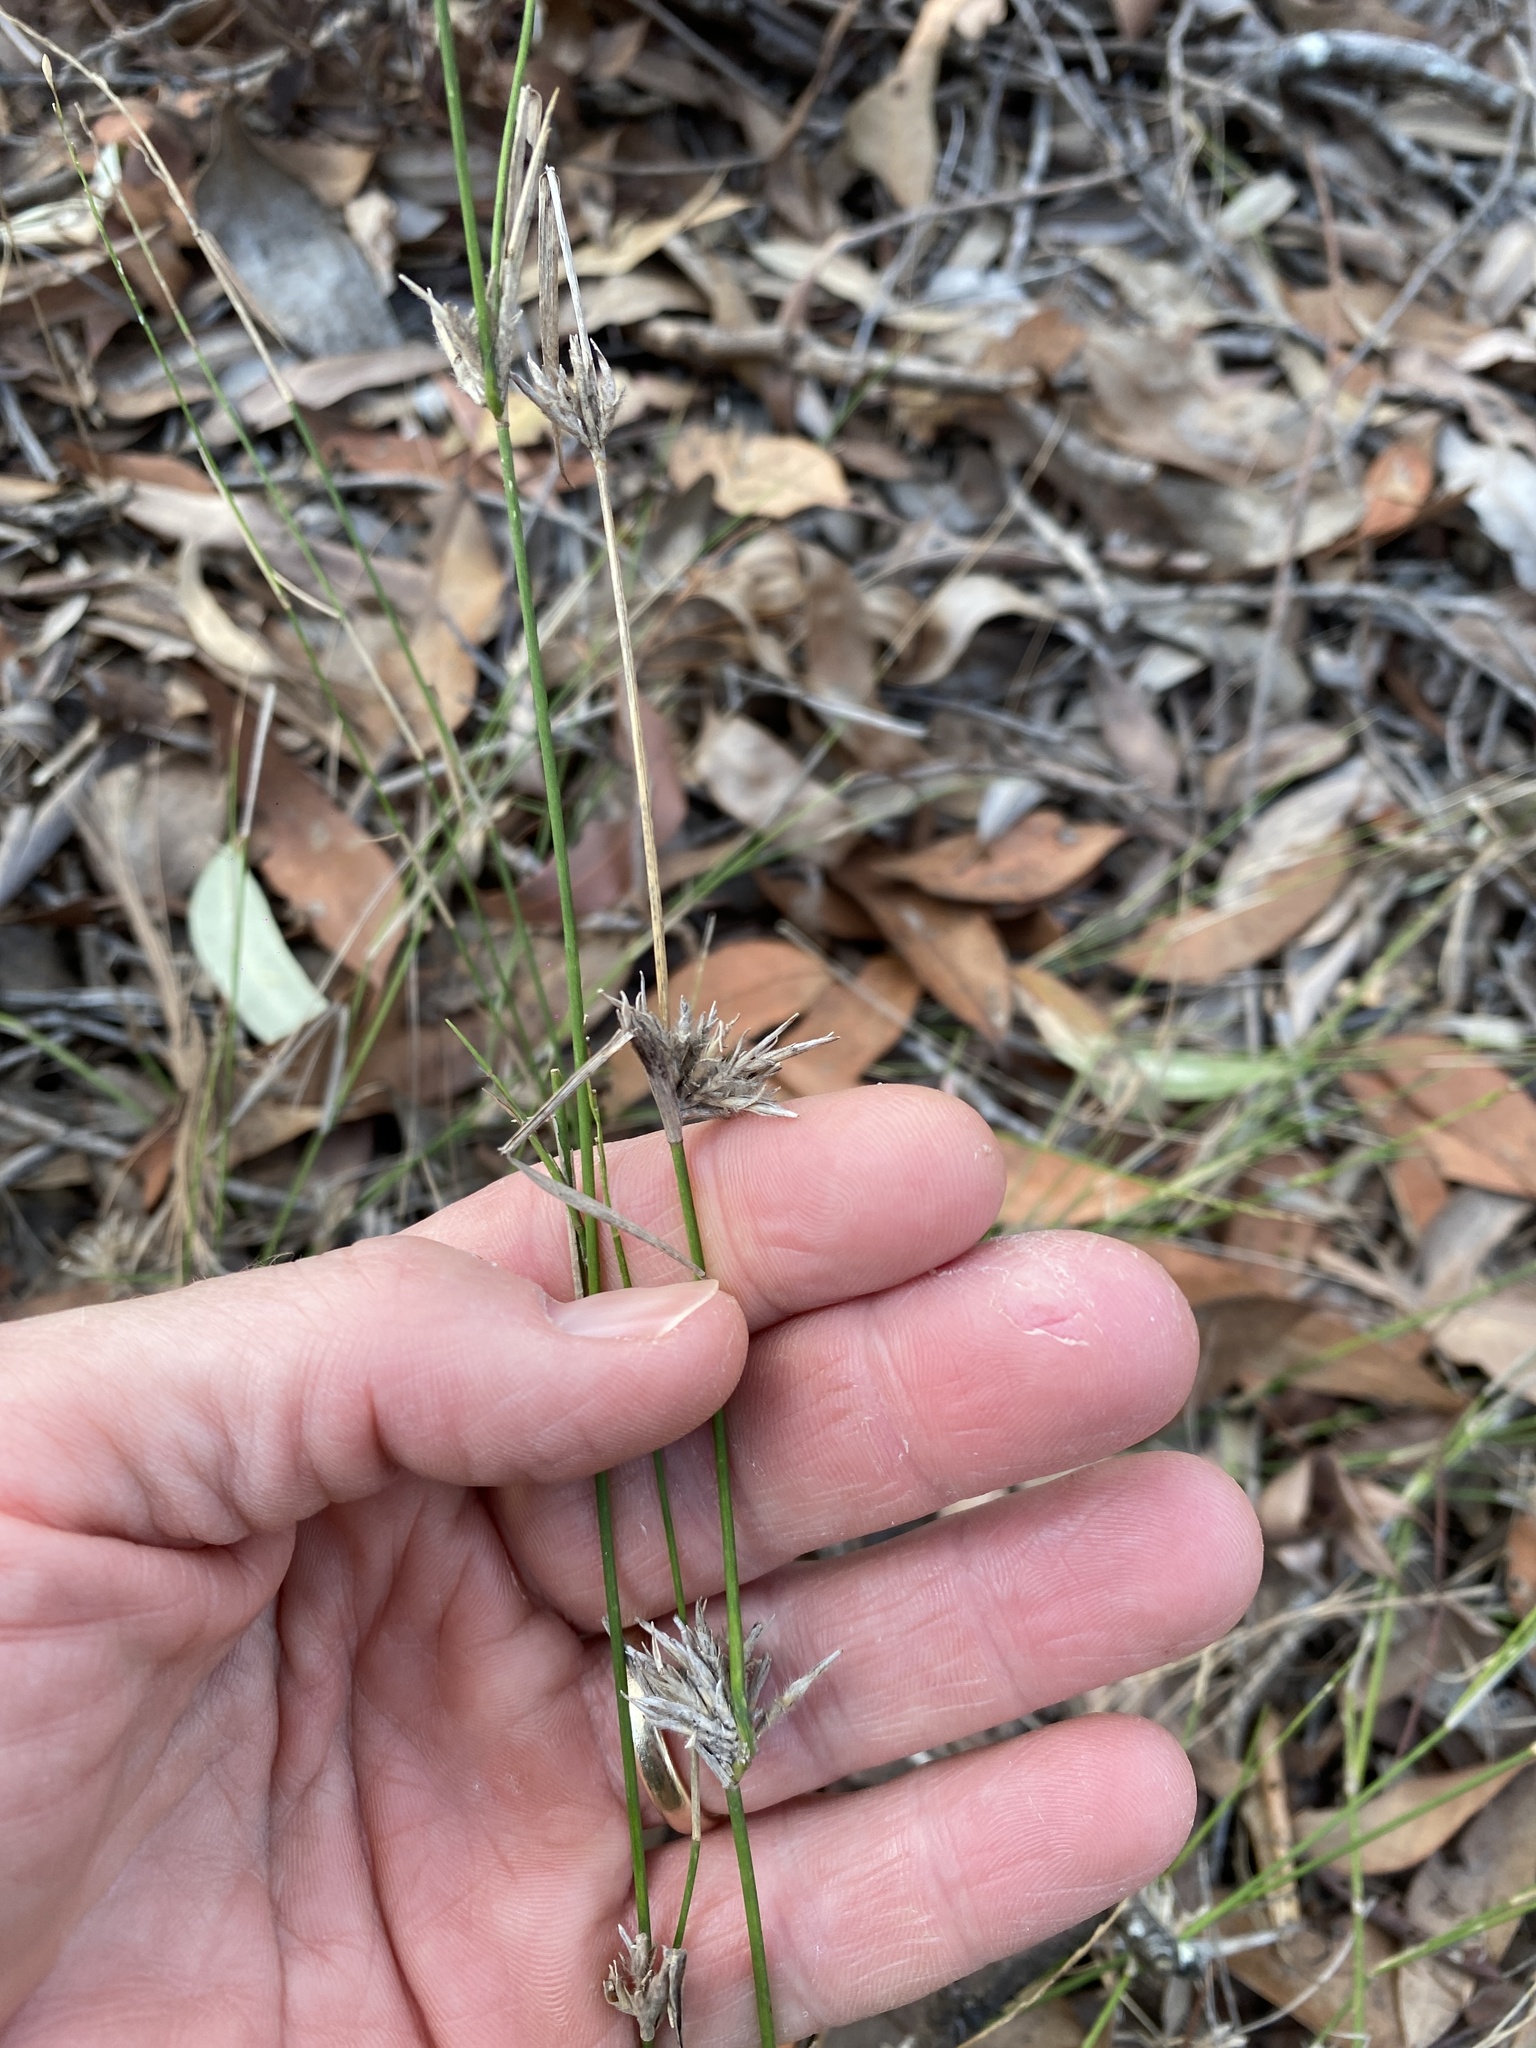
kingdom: Plantae
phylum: Tracheophyta
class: Liliopsida
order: Poales
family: Poaceae
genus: Entolasia
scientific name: Entolasia stricta
